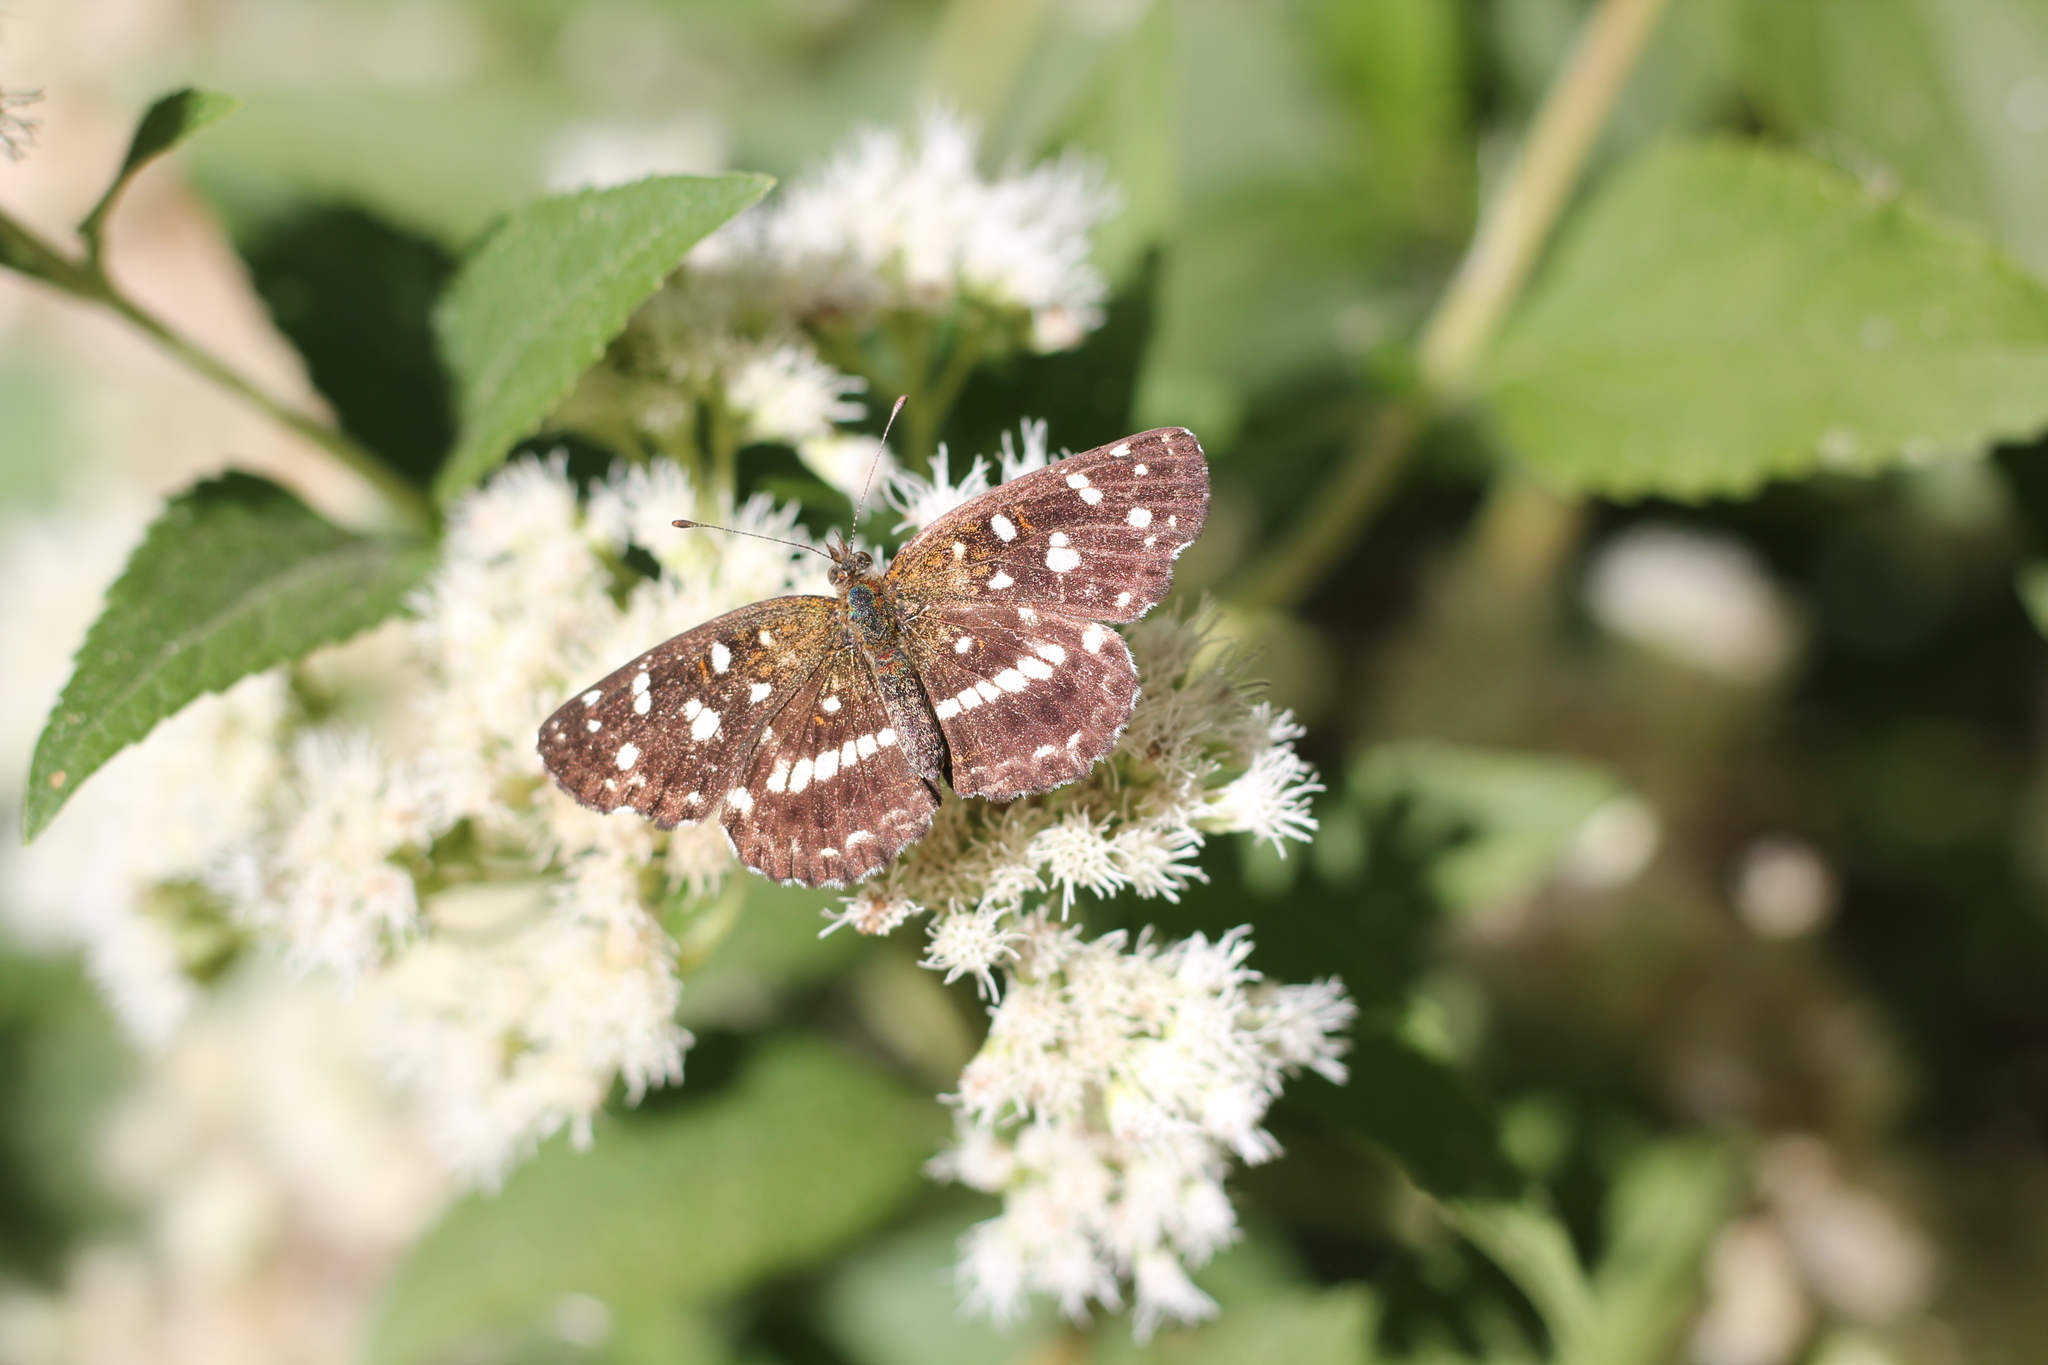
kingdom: Animalia
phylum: Arthropoda
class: Insecta
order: Lepidoptera
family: Nymphalidae
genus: Ortilia
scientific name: Ortilia ithra
